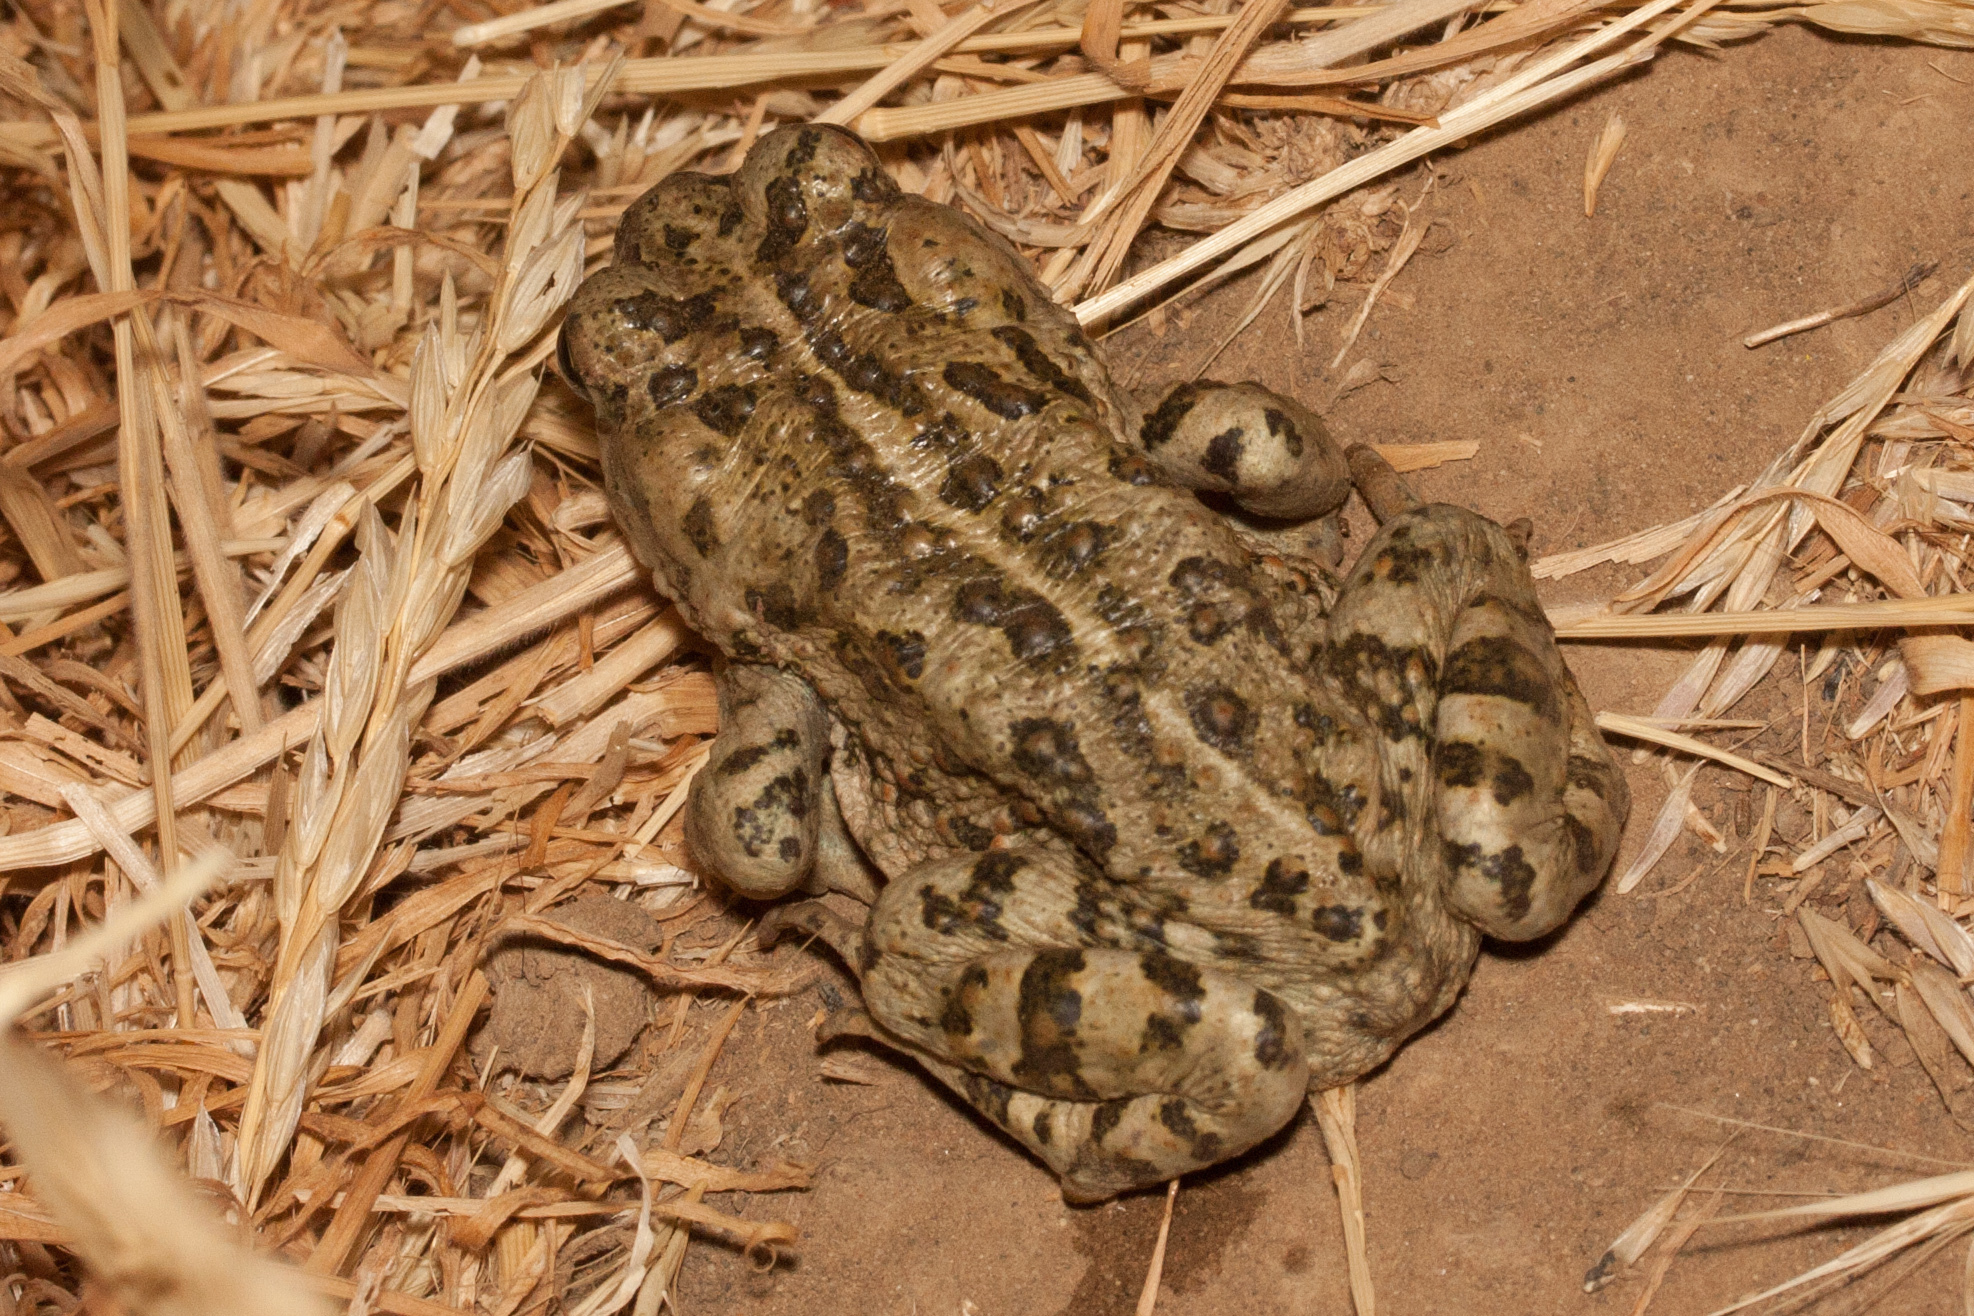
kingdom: Animalia
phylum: Chordata
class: Amphibia
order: Anura
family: Bufonidae
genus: Anaxyrus
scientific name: Anaxyrus boreas
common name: Western toad
